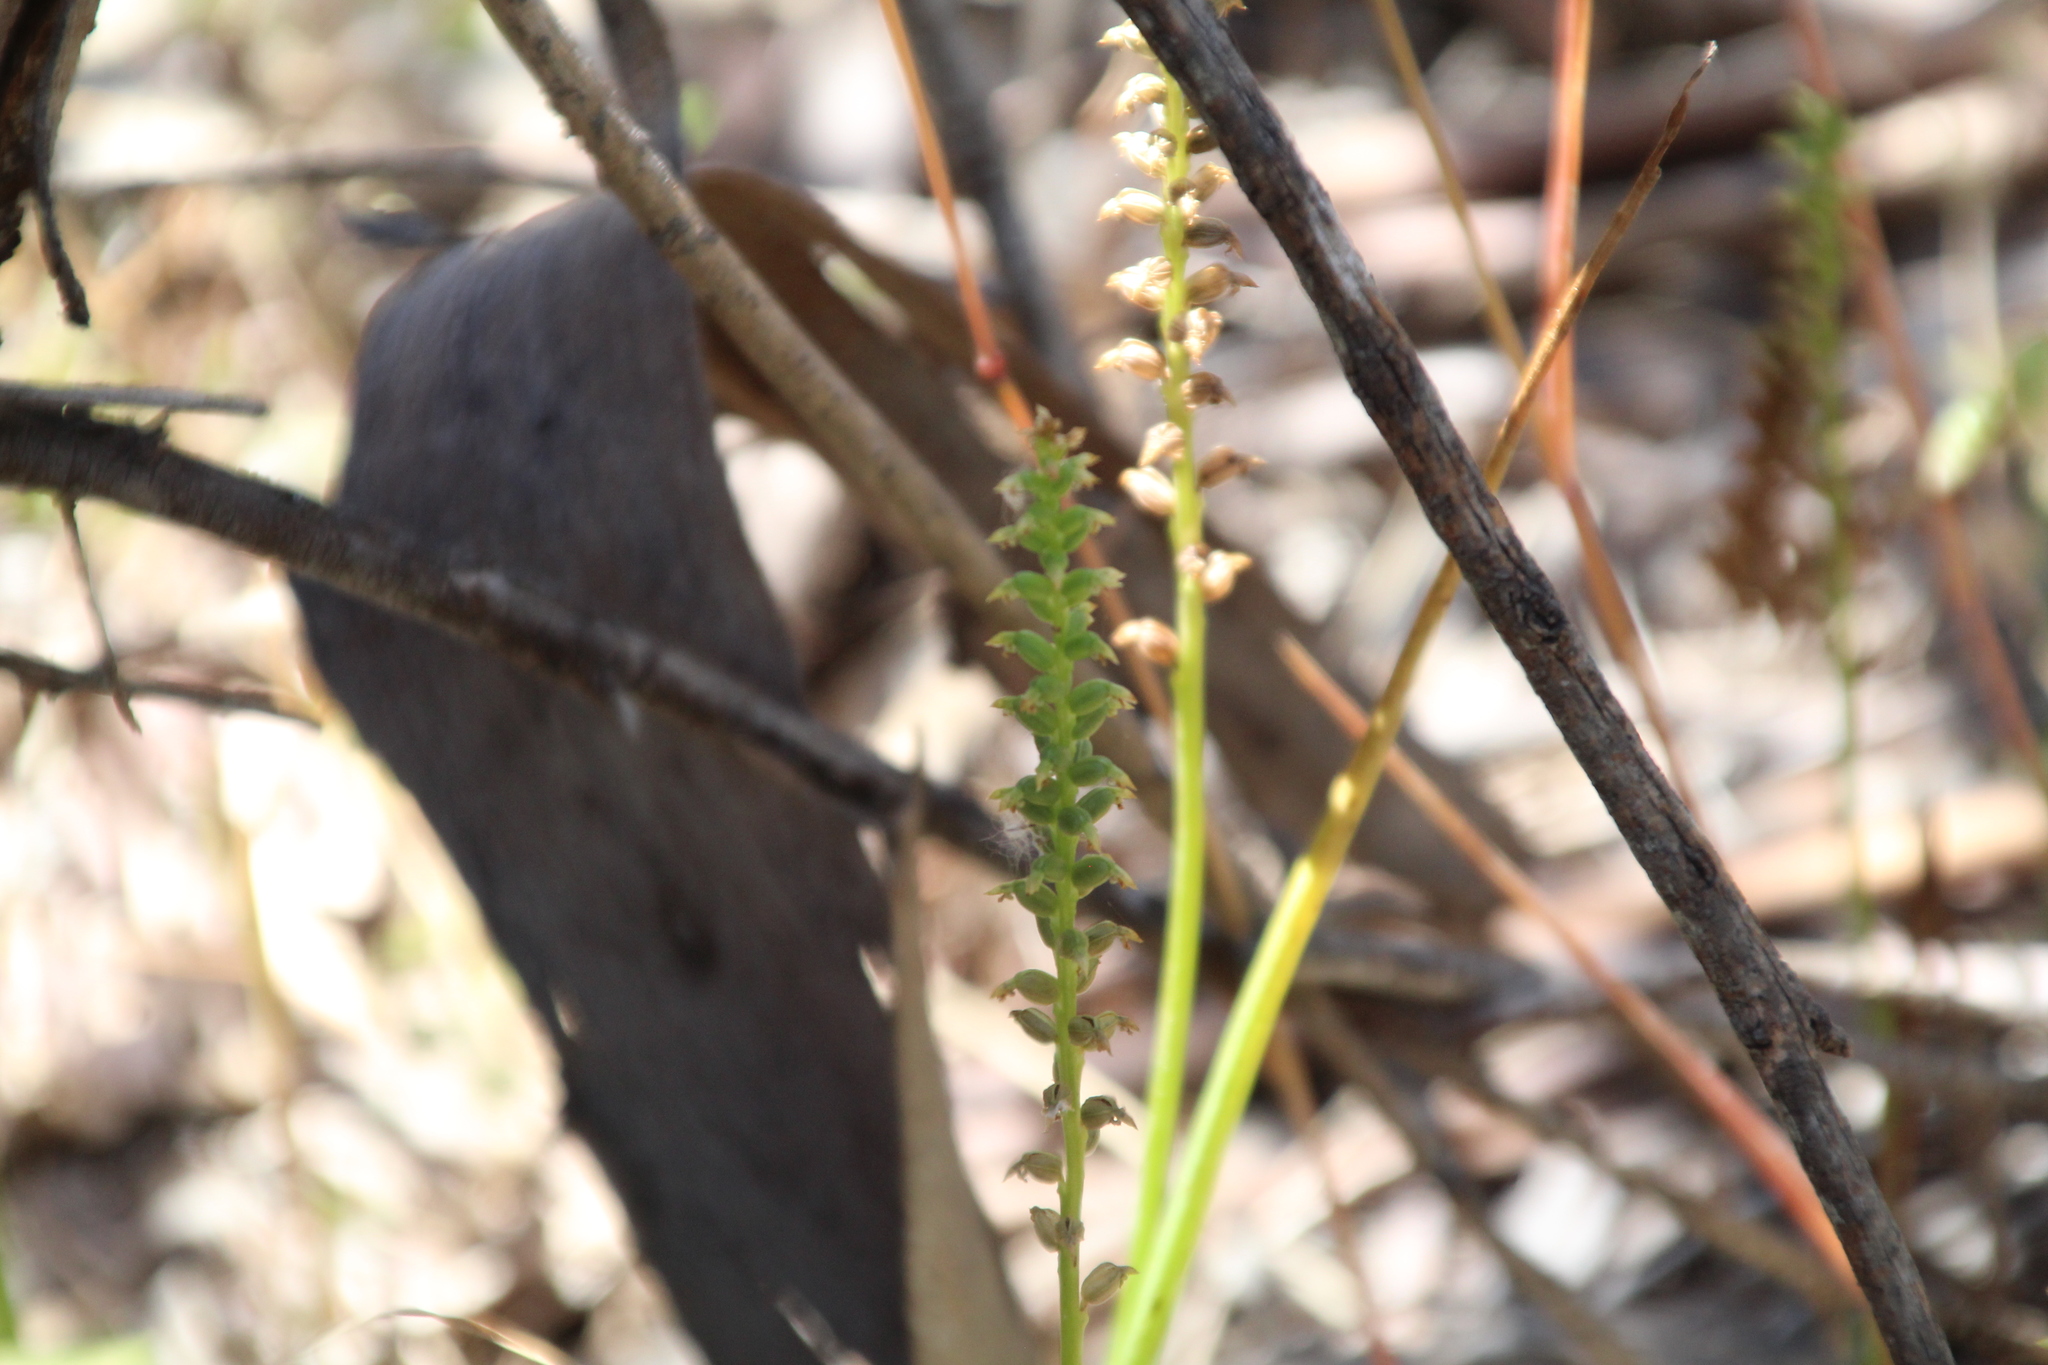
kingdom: Plantae
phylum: Tracheophyta
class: Liliopsida
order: Asparagales
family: Orchidaceae
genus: Microtis
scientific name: Microtis media
